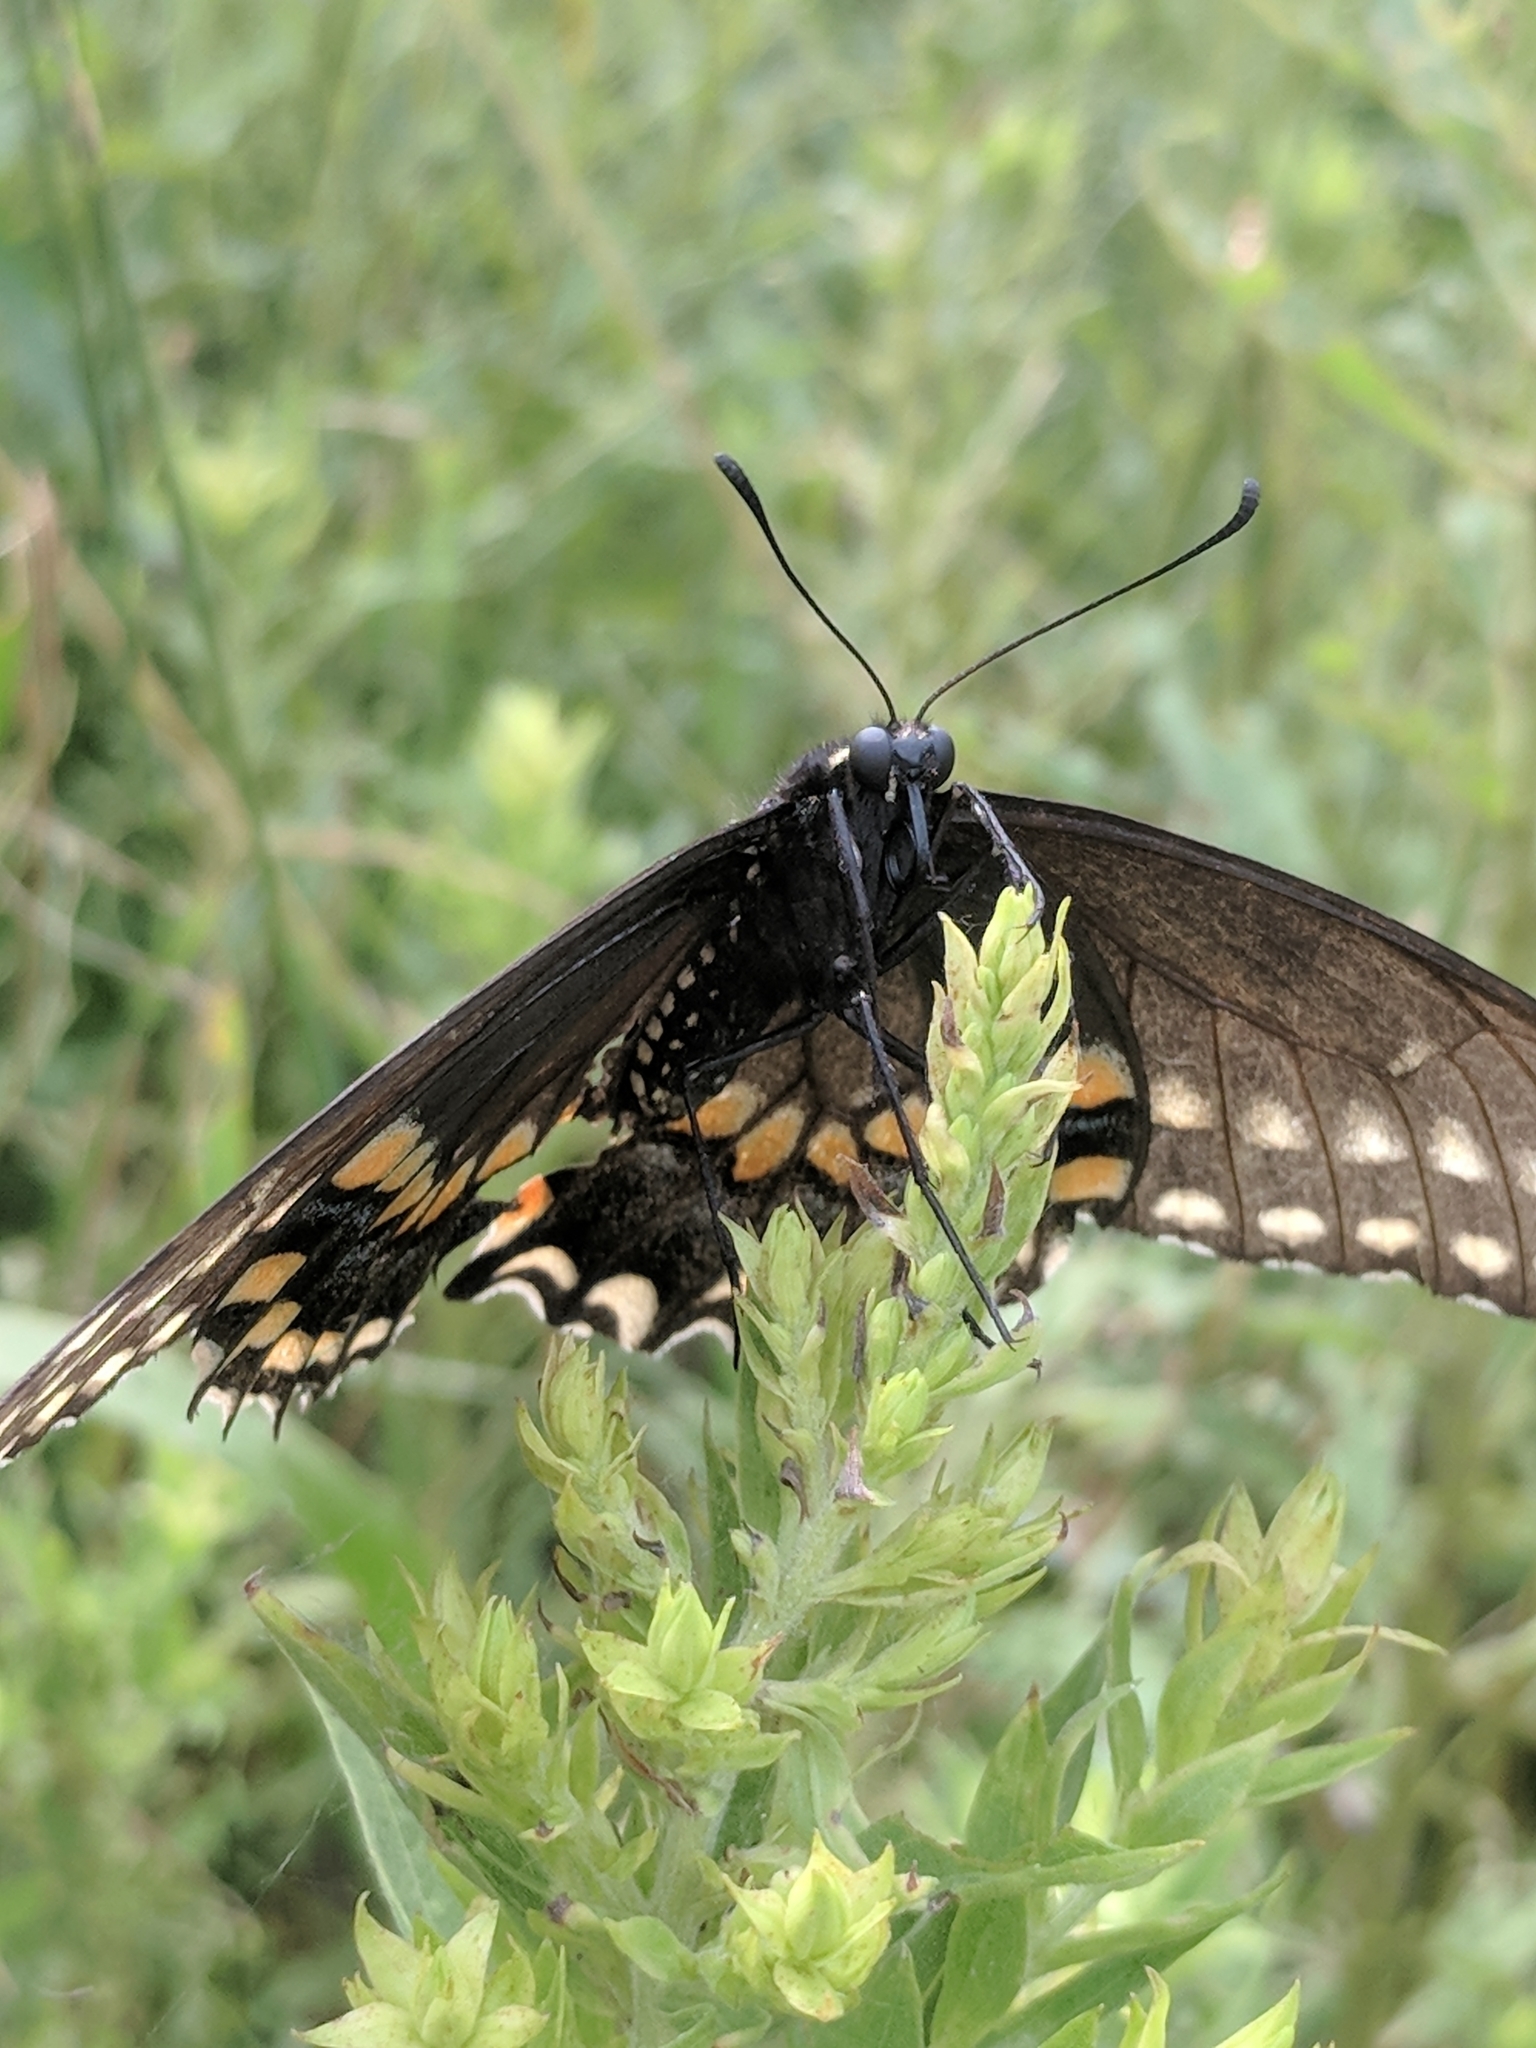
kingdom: Animalia
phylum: Arthropoda
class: Insecta
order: Lepidoptera
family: Papilionidae
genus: Papilio
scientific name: Papilio polyxenes
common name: Black swallowtail
